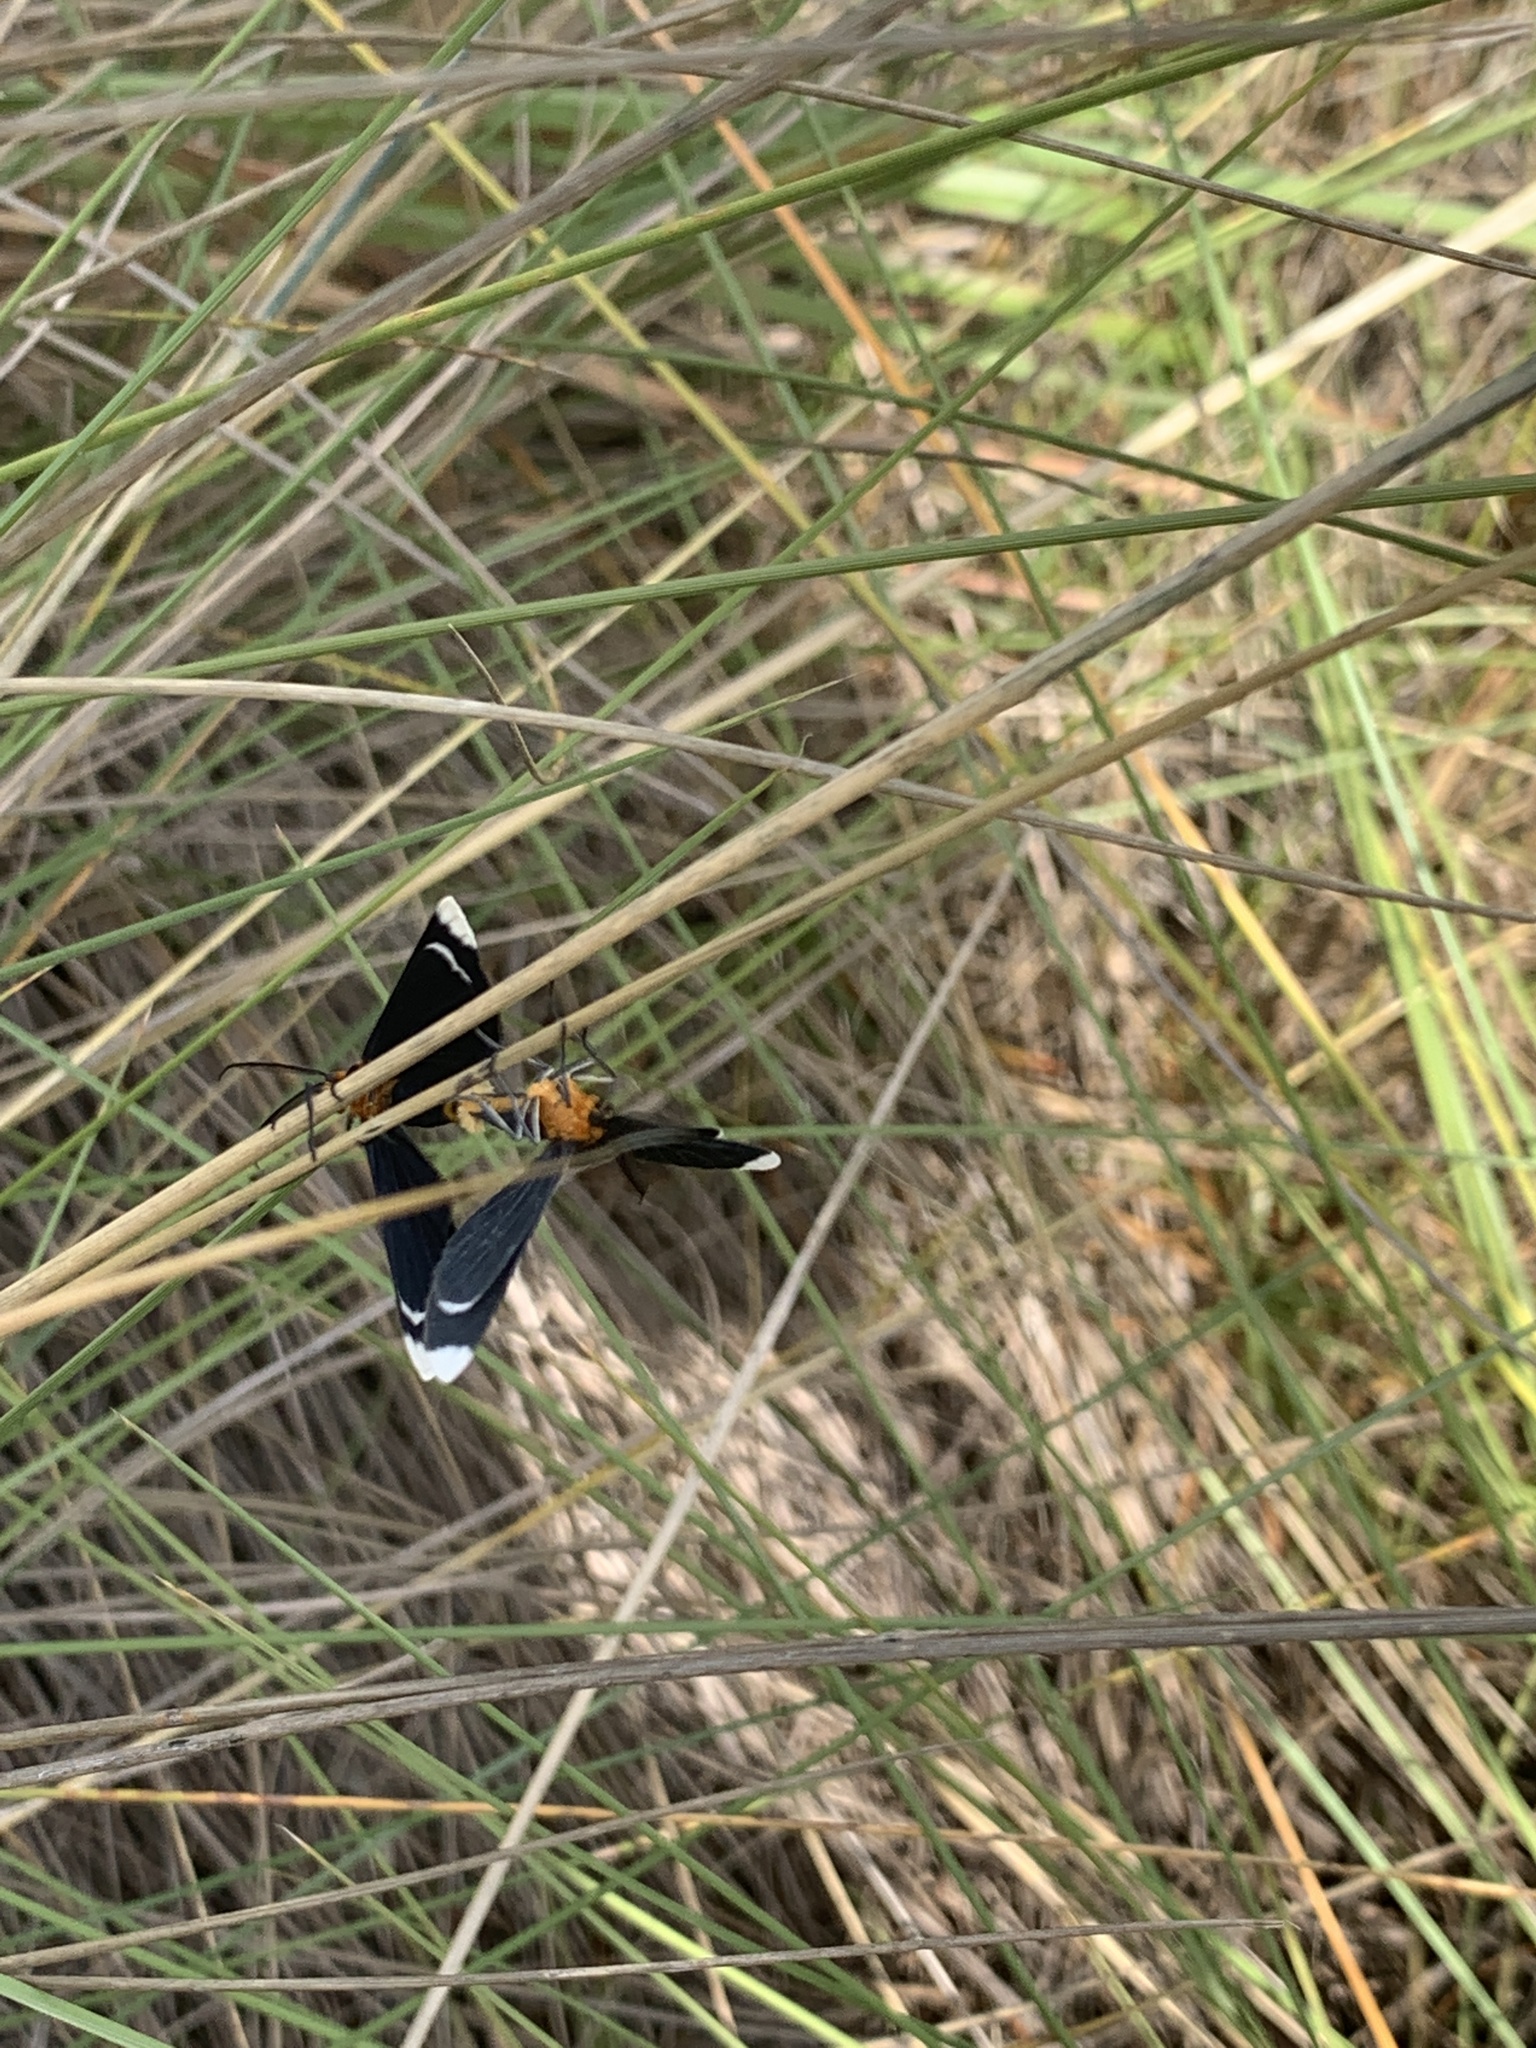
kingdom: Animalia
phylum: Arthropoda
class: Insecta
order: Lepidoptera
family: Geometridae
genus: Melanchroia
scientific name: Melanchroia chephise
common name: White-tipped black
